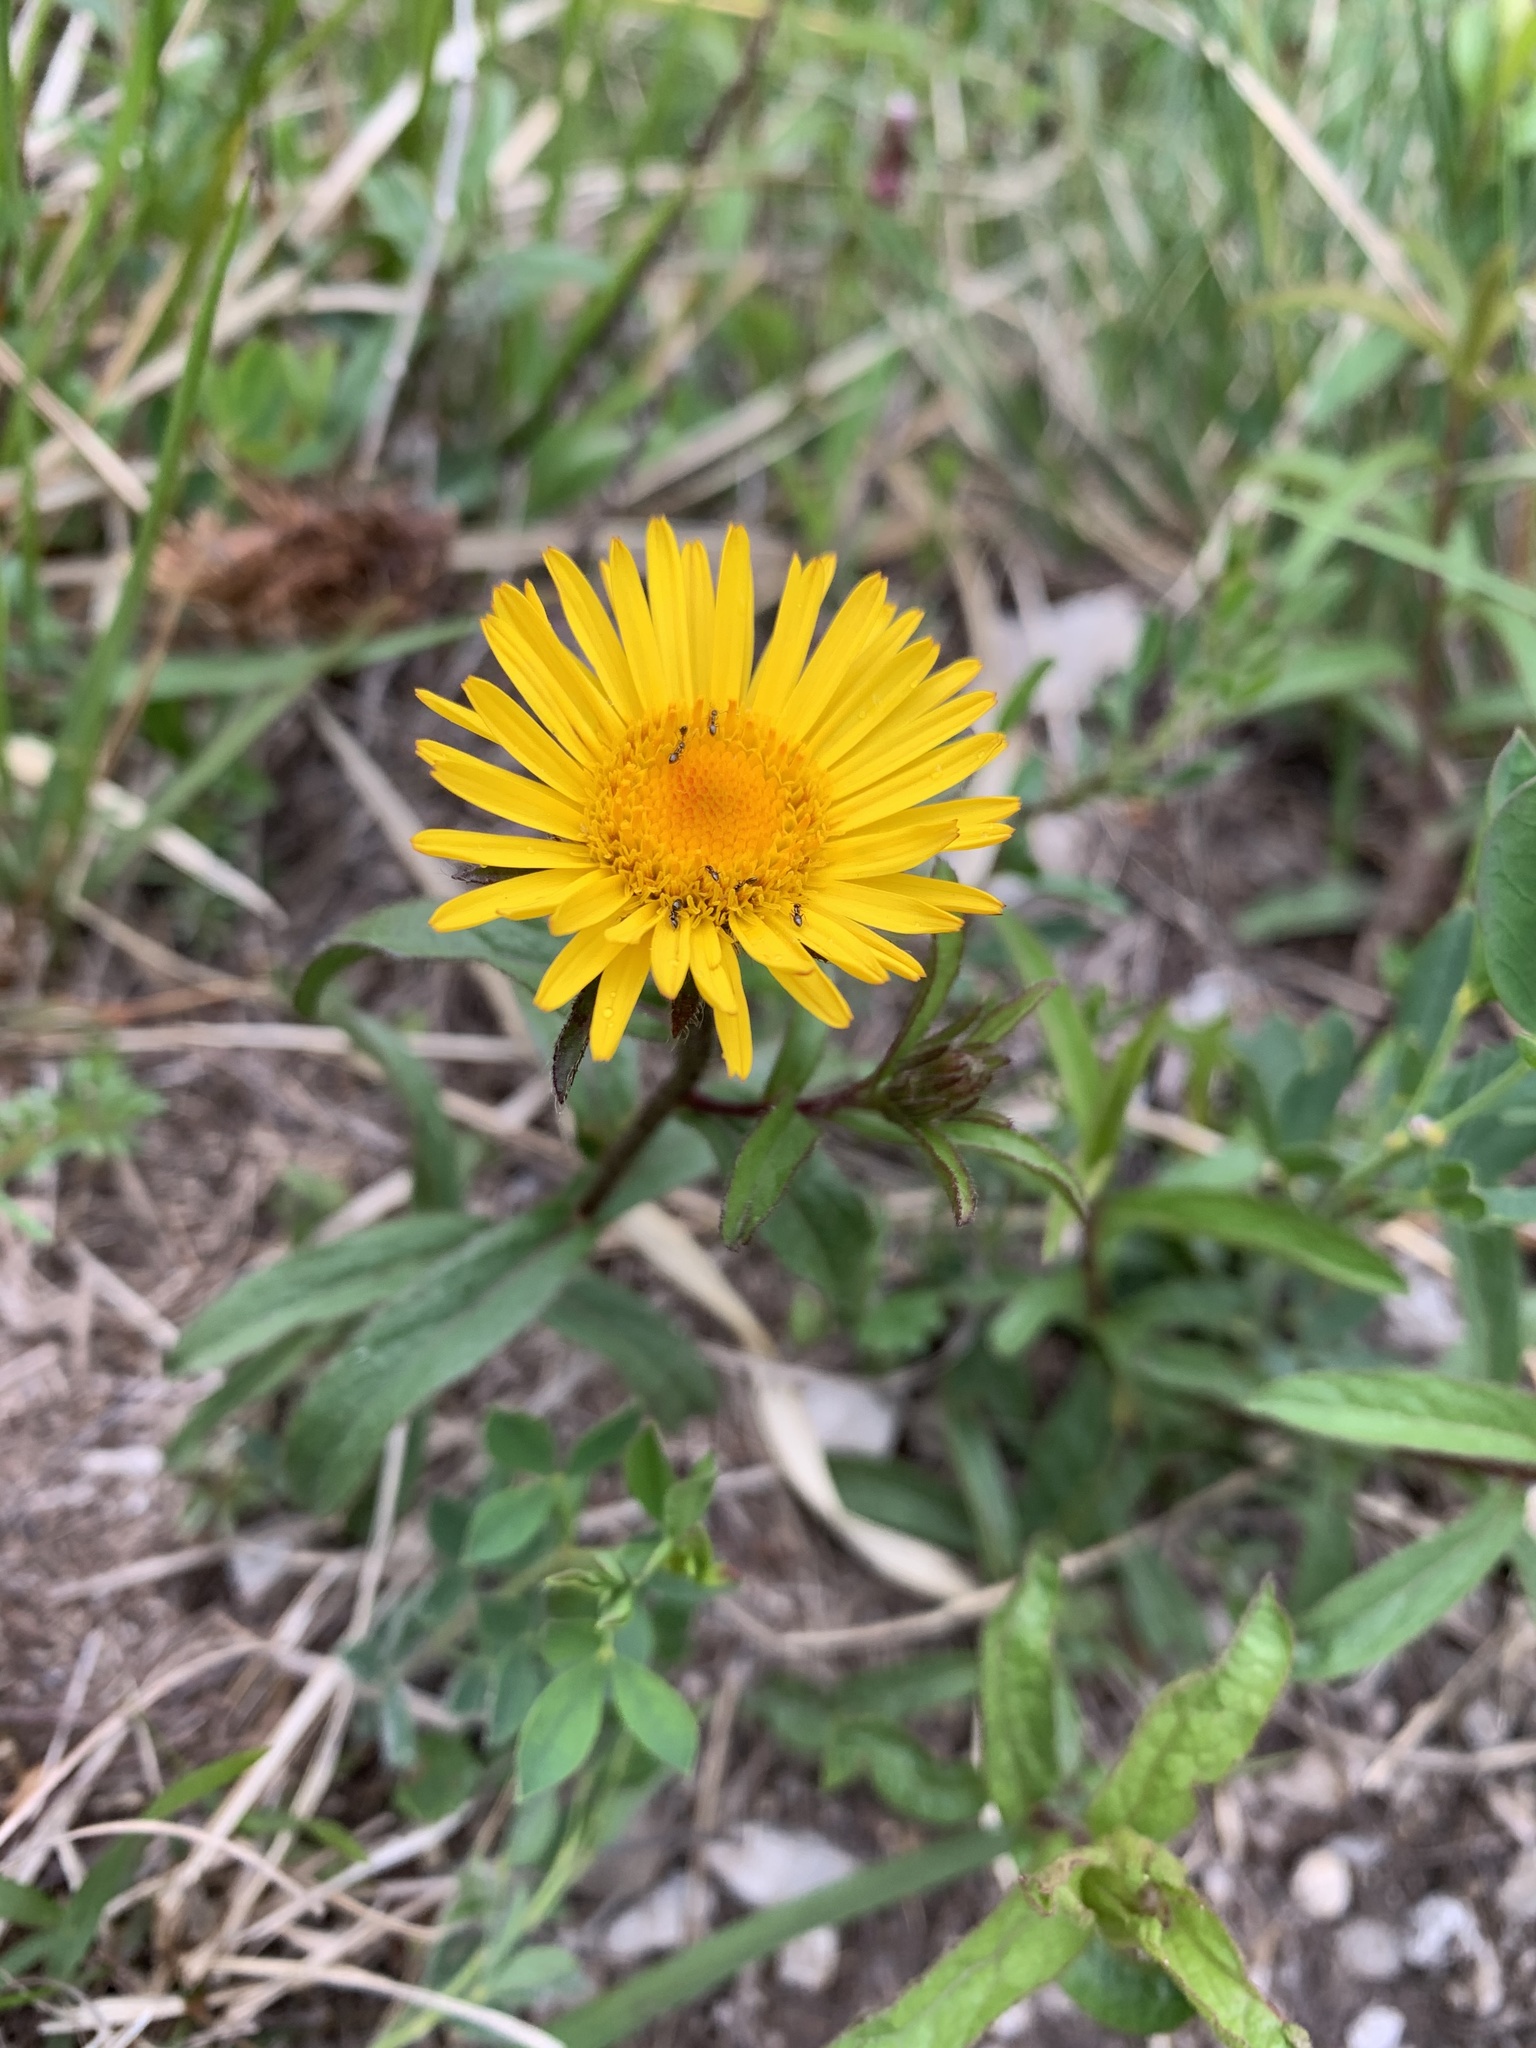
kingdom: Plantae
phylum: Tracheophyta
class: Magnoliopsida
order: Asterales
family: Asteraceae
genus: Buphthalmum
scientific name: Buphthalmum salicifolium
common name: Willow-leaved yellow-oxeye
